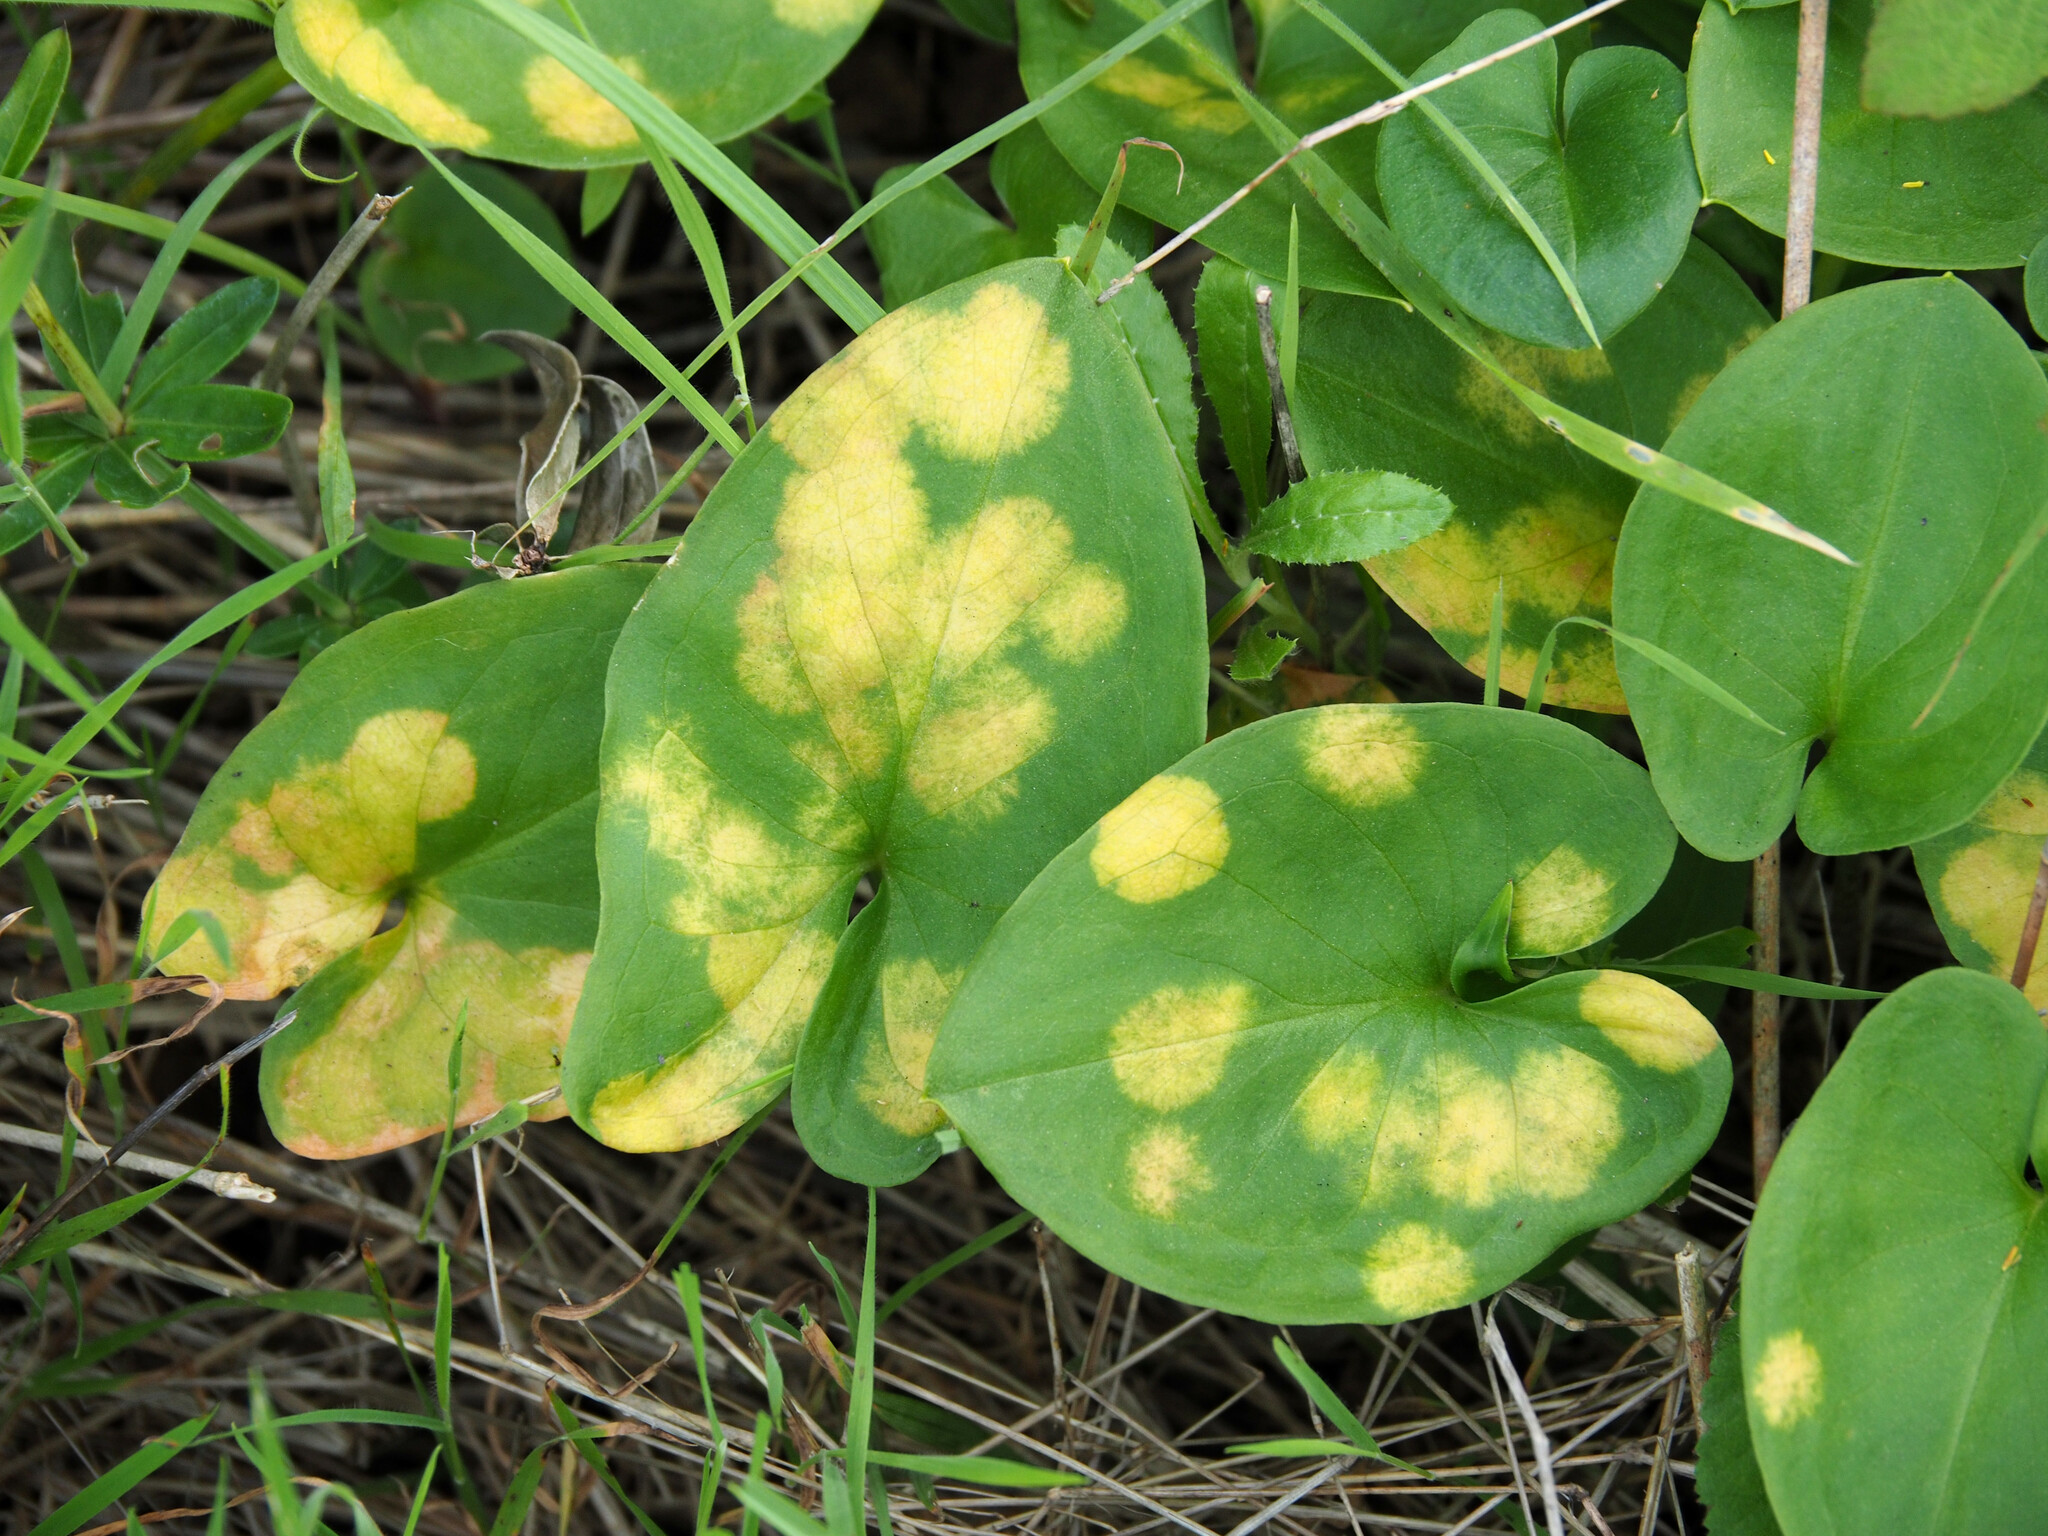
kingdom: Plantae
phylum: Tracheophyta
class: Liliopsida
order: Alismatales
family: Araceae
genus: Arisarum
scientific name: Arisarum vulgare
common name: Common arisarum
